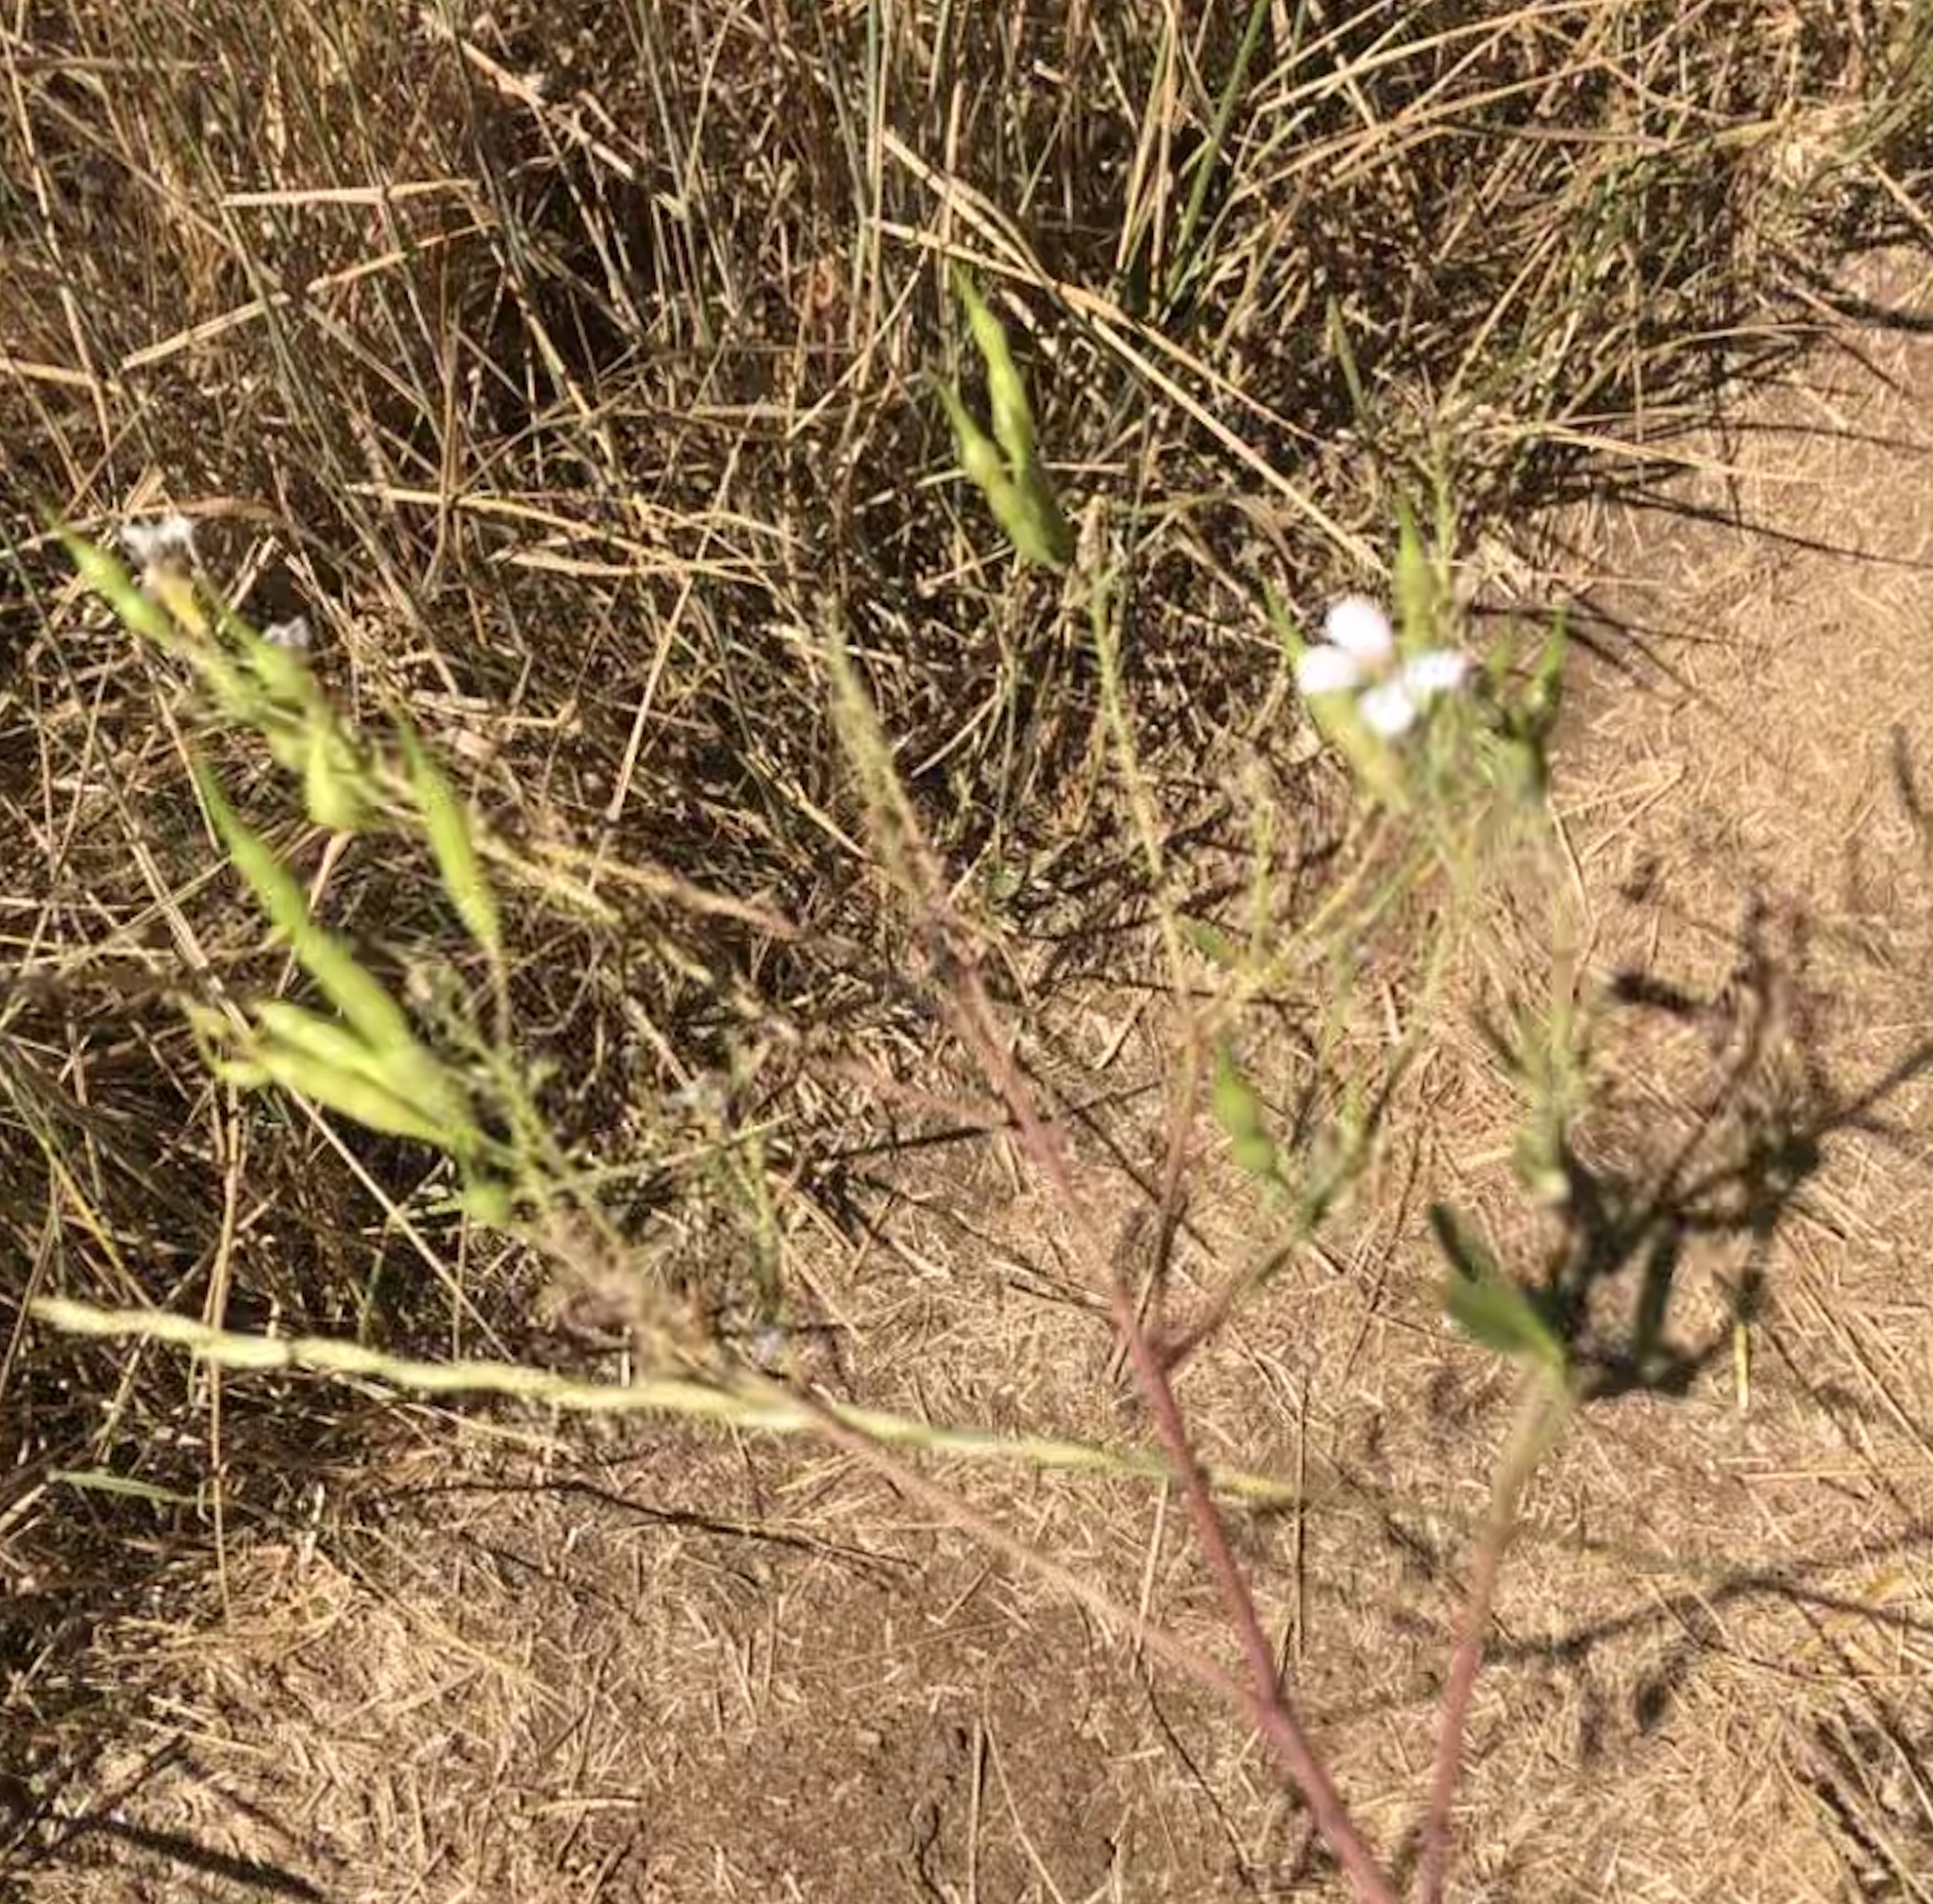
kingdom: Plantae
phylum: Tracheophyta
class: Magnoliopsida
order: Brassicales
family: Brassicaceae
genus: Raphanus
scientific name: Raphanus sativus
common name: Cultivated radish
